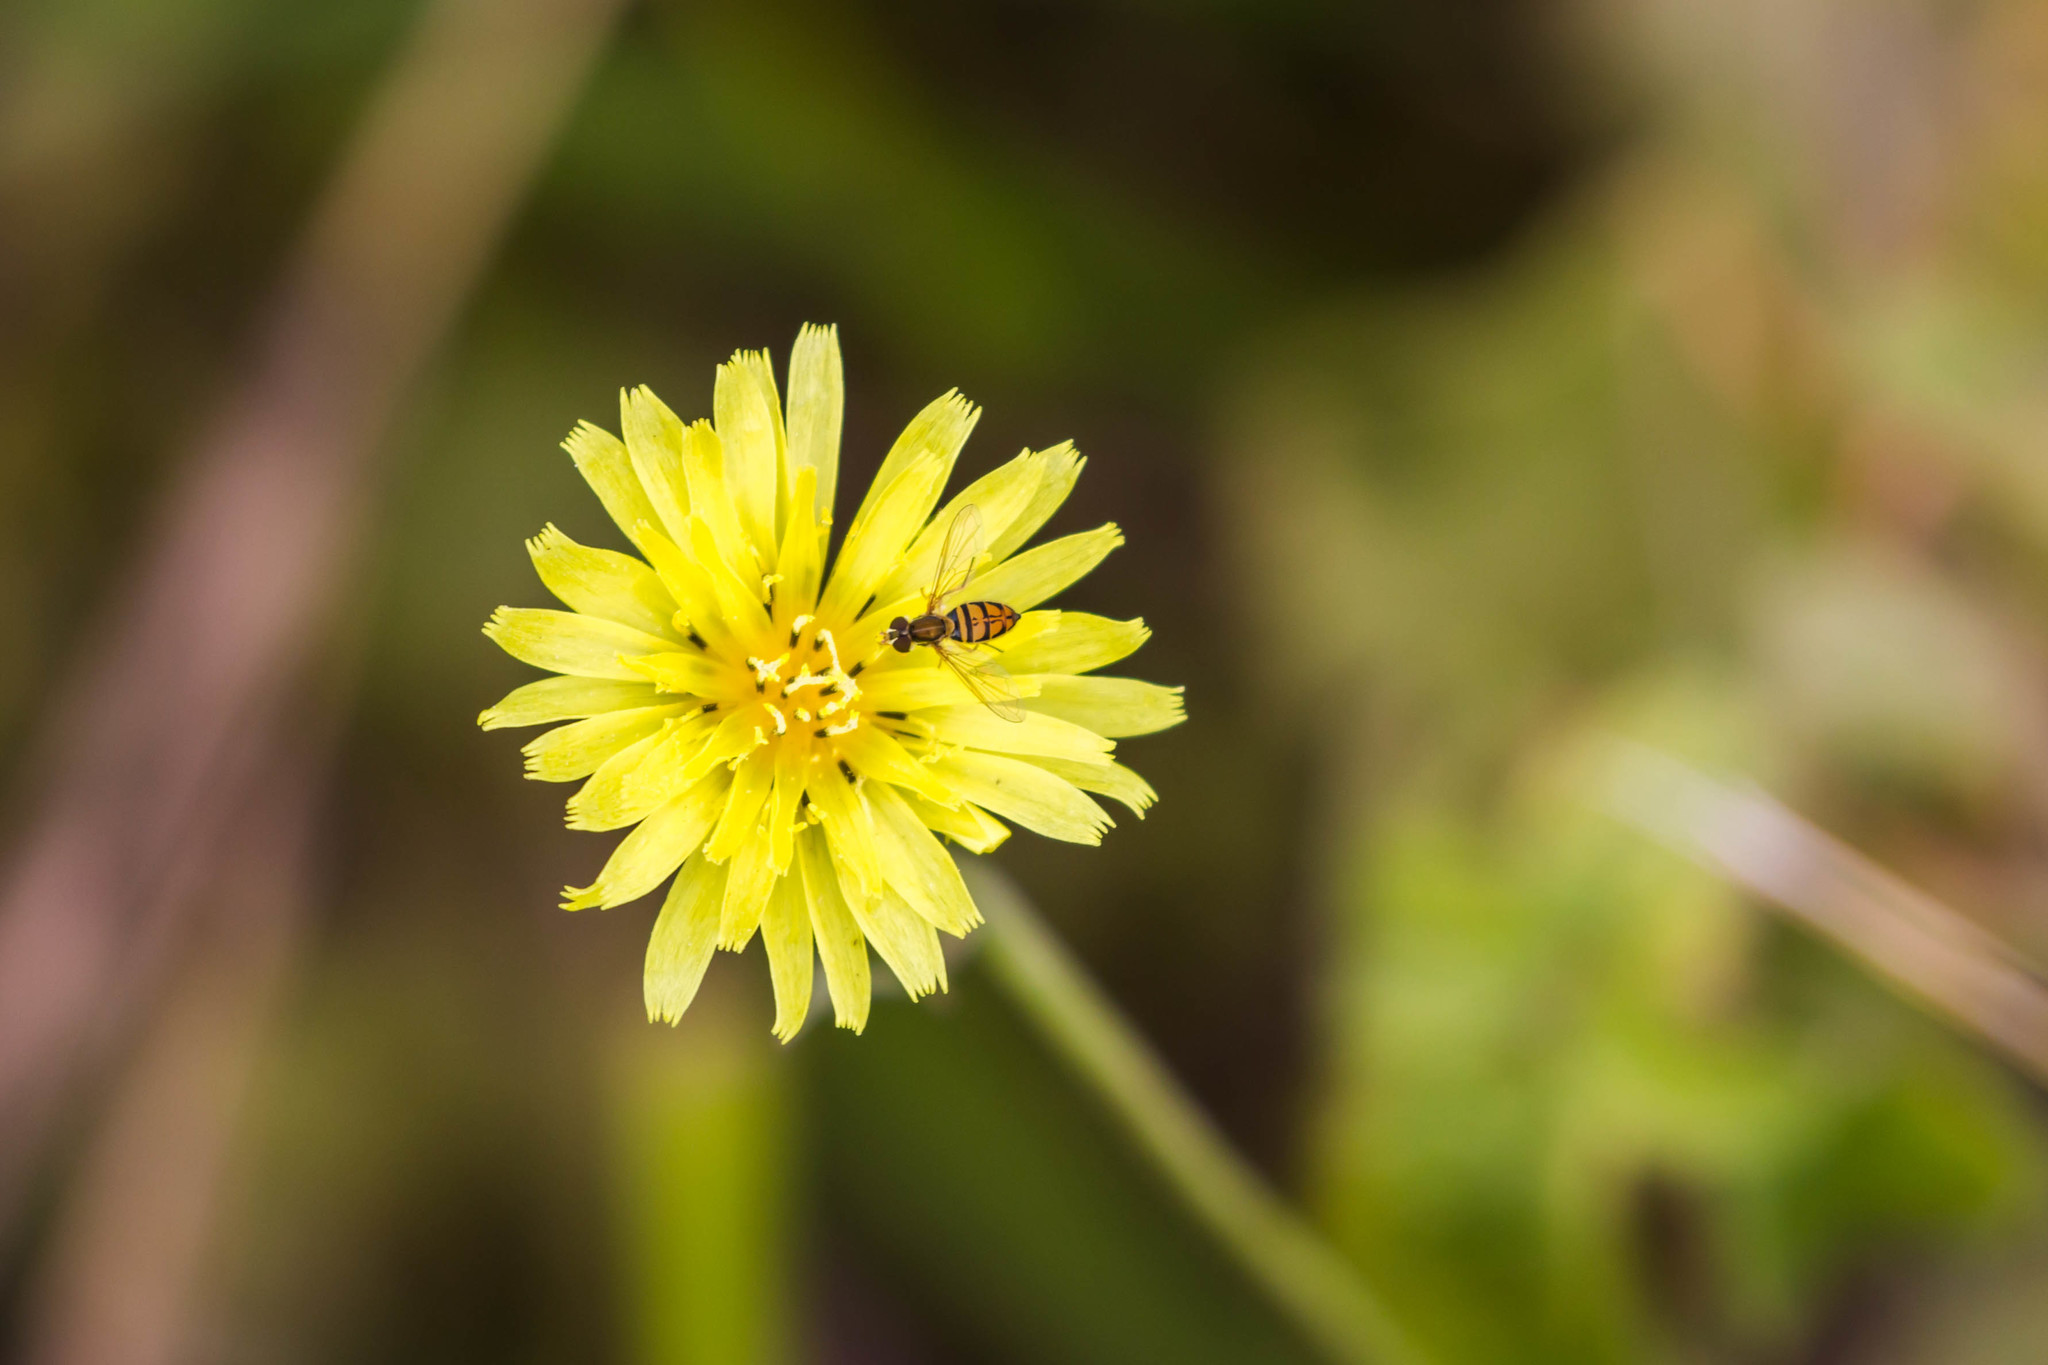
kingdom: Animalia
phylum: Arthropoda
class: Insecta
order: Diptera
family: Syrphidae
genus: Toxomerus
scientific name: Toxomerus marginatus
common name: Syrphid fly
